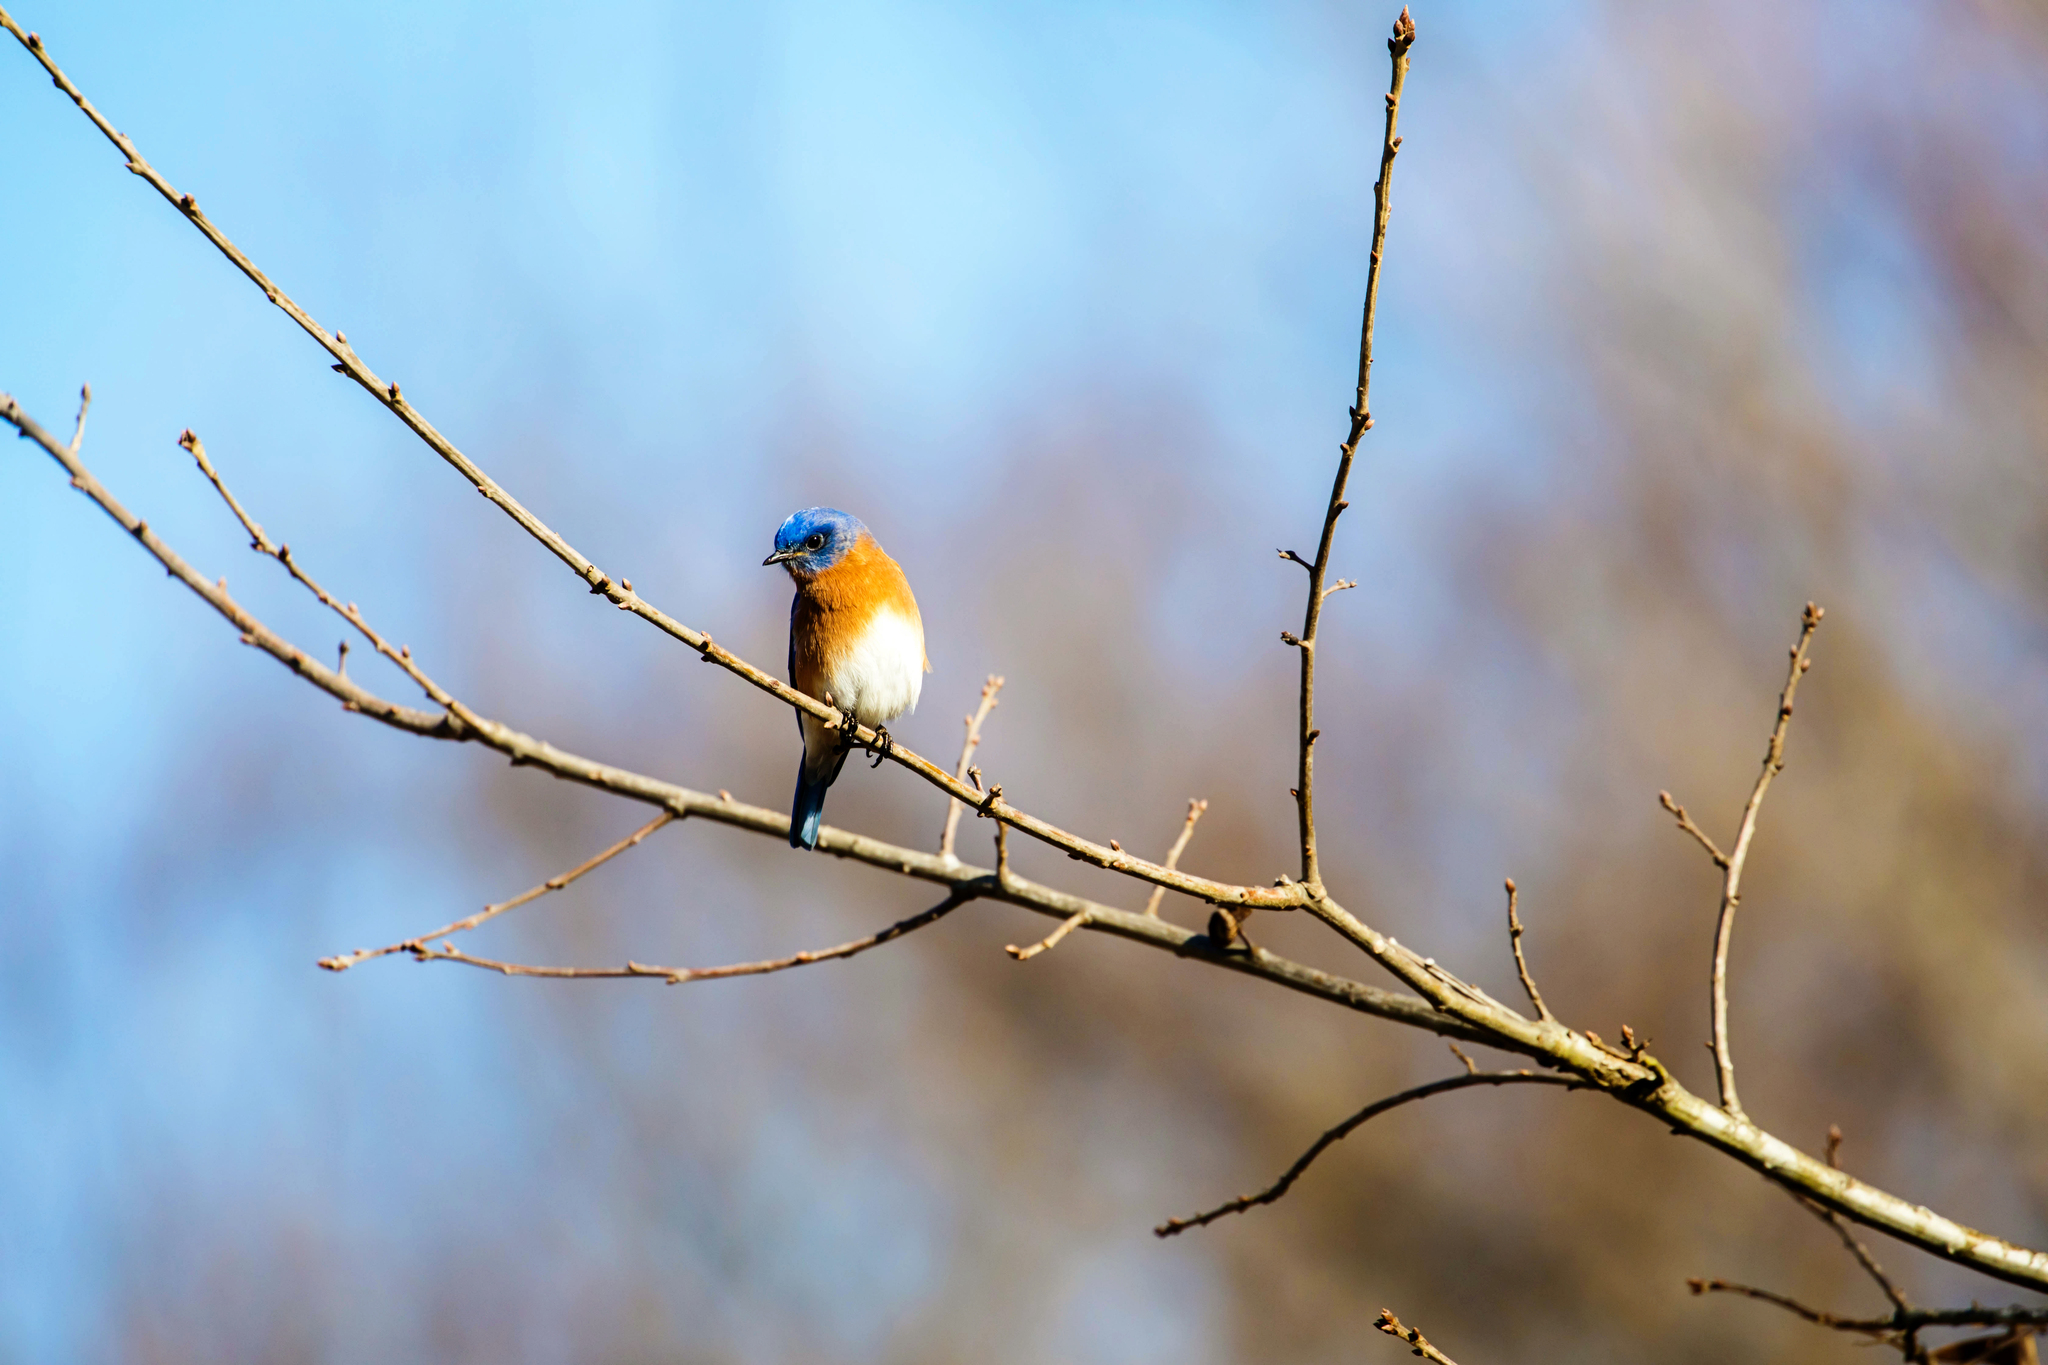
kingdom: Animalia
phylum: Chordata
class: Aves
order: Passeriformes
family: Turdidae
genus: Sialia
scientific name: Sialia sialis
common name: Eastern bluebird
